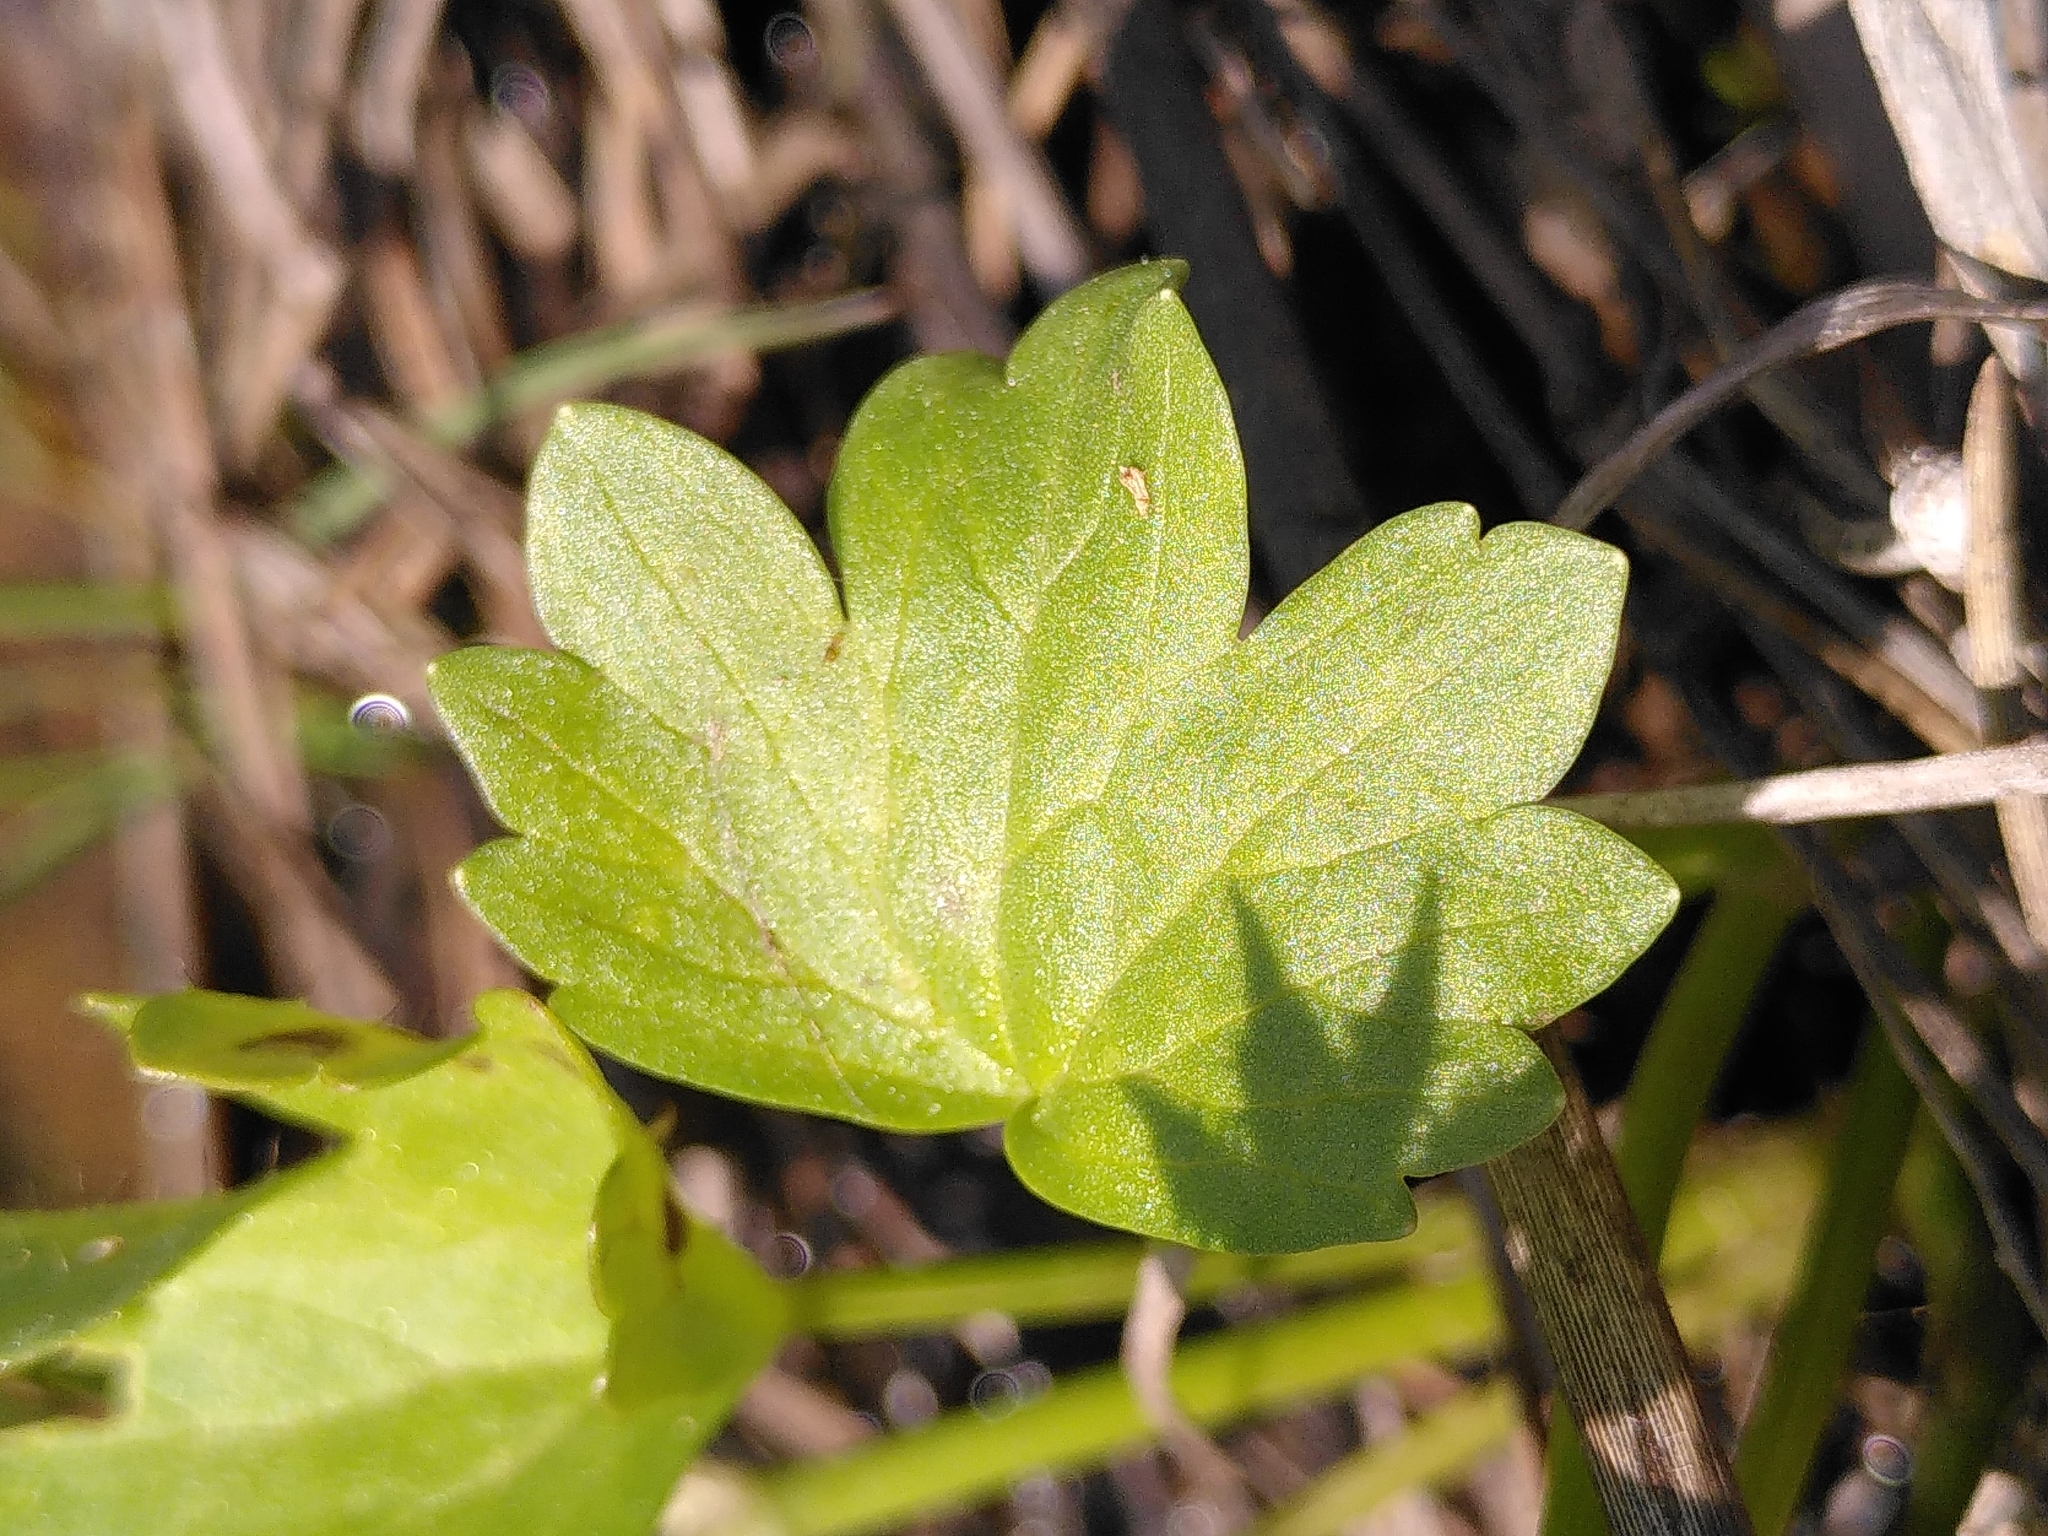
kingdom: Plantae
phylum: Tracheophyta
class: Magnoliopsida
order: Ranunculales
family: Ranunculaceae
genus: Ranunculus
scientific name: Ranunculus muricatus
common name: Rough-fruited buttercup
